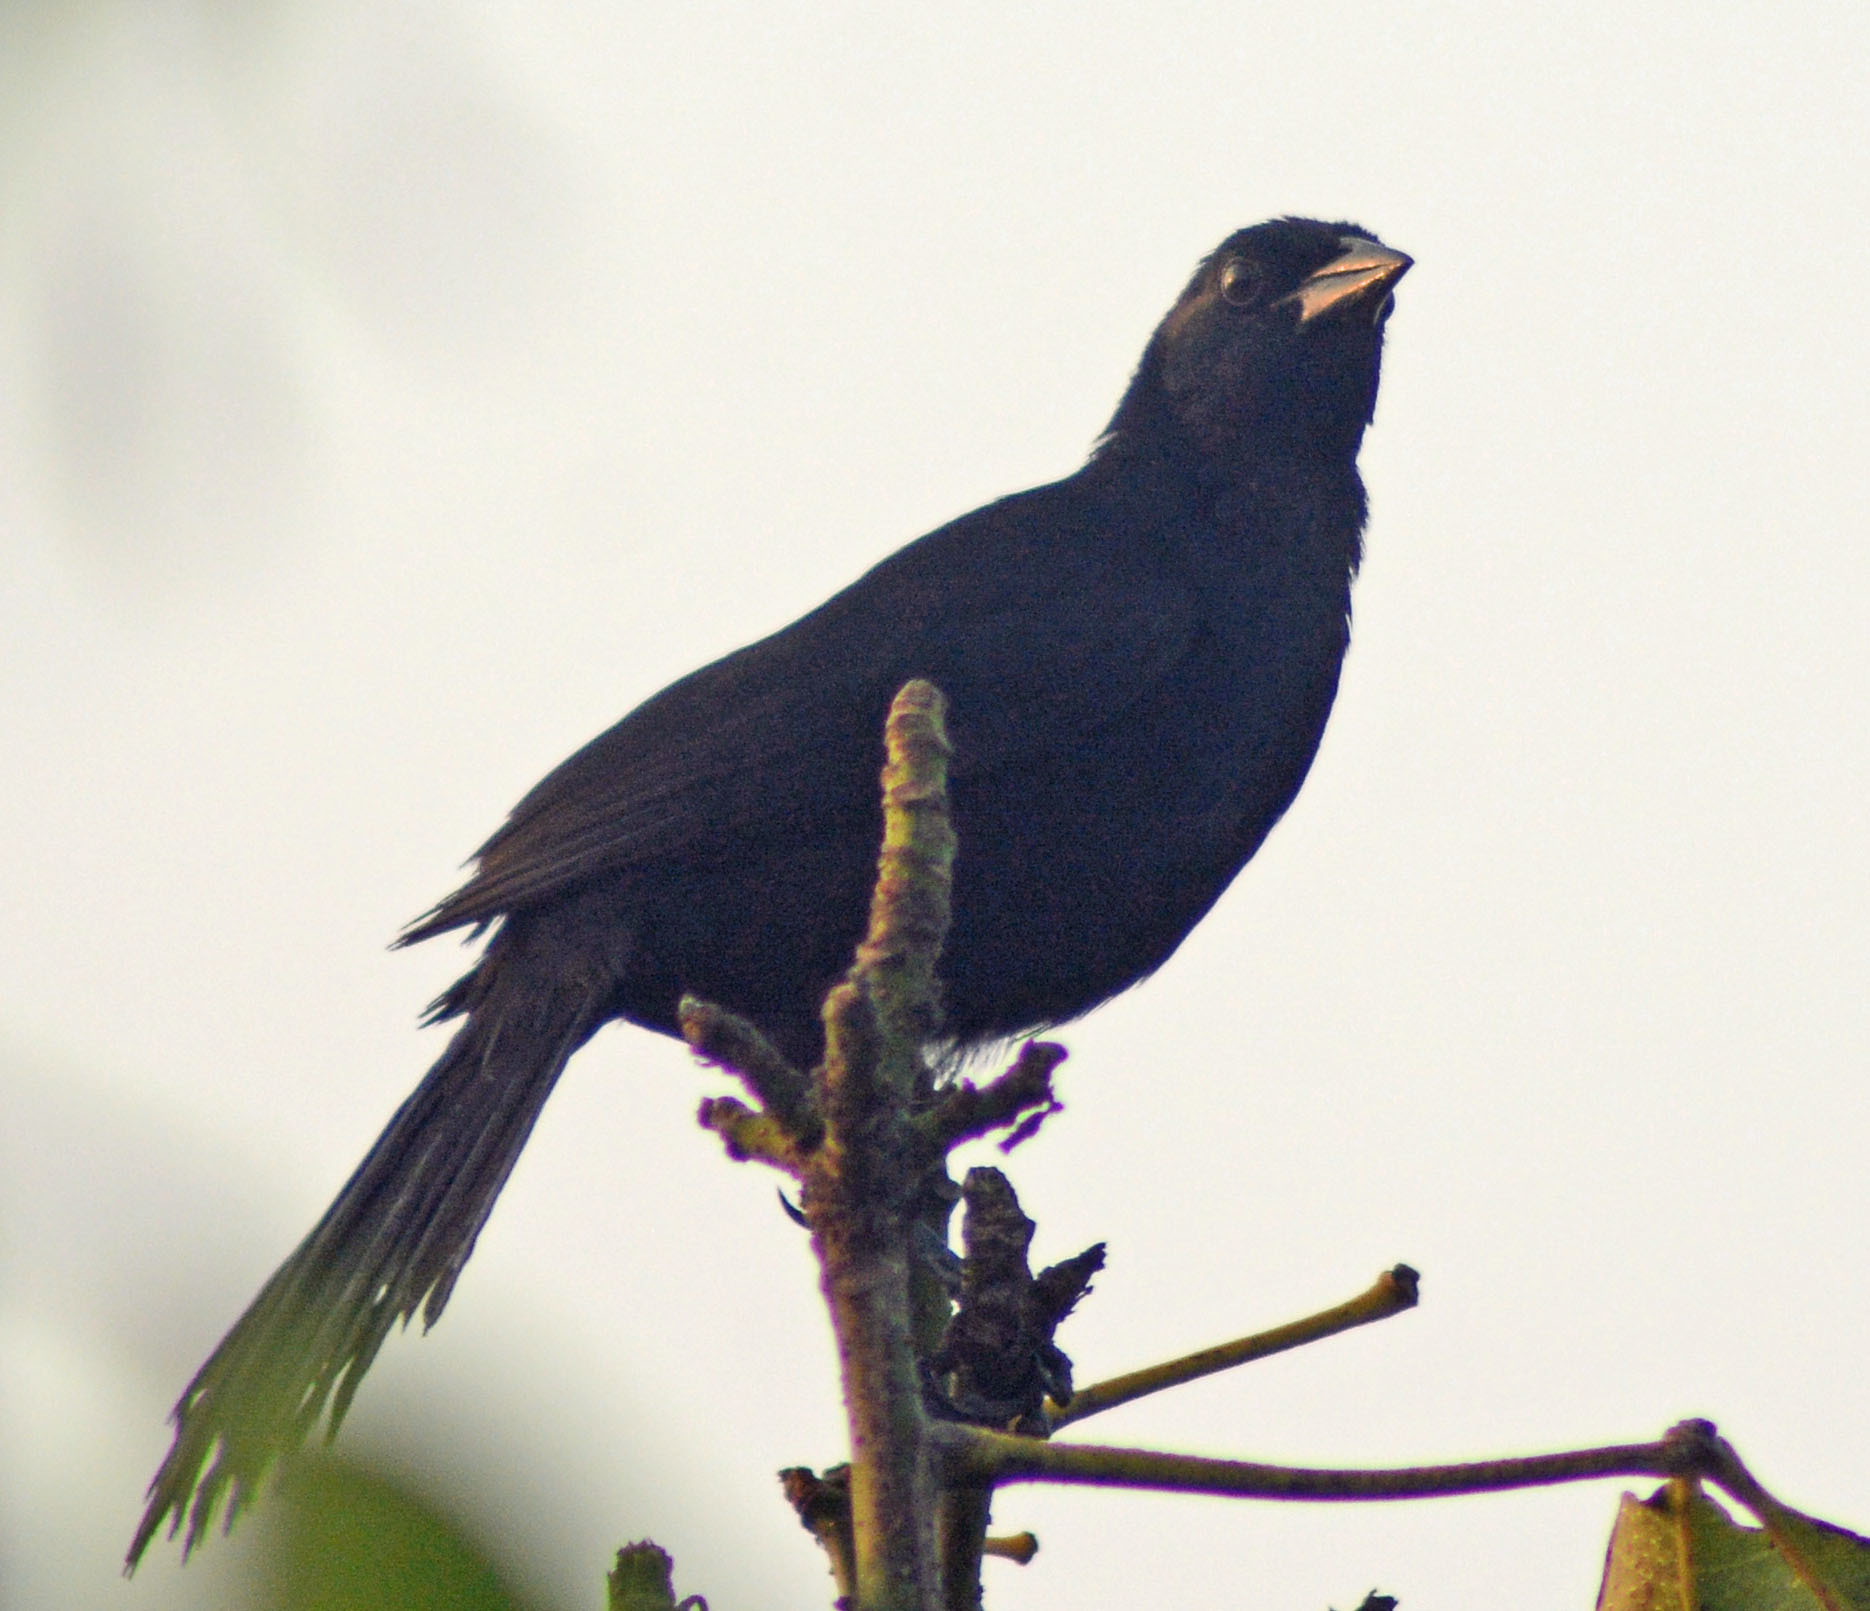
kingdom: Animalia
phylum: Chordata
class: Aves
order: Passeriformes
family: Icteridae
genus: Dives
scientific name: Dives dives
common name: Melodious blackbird
